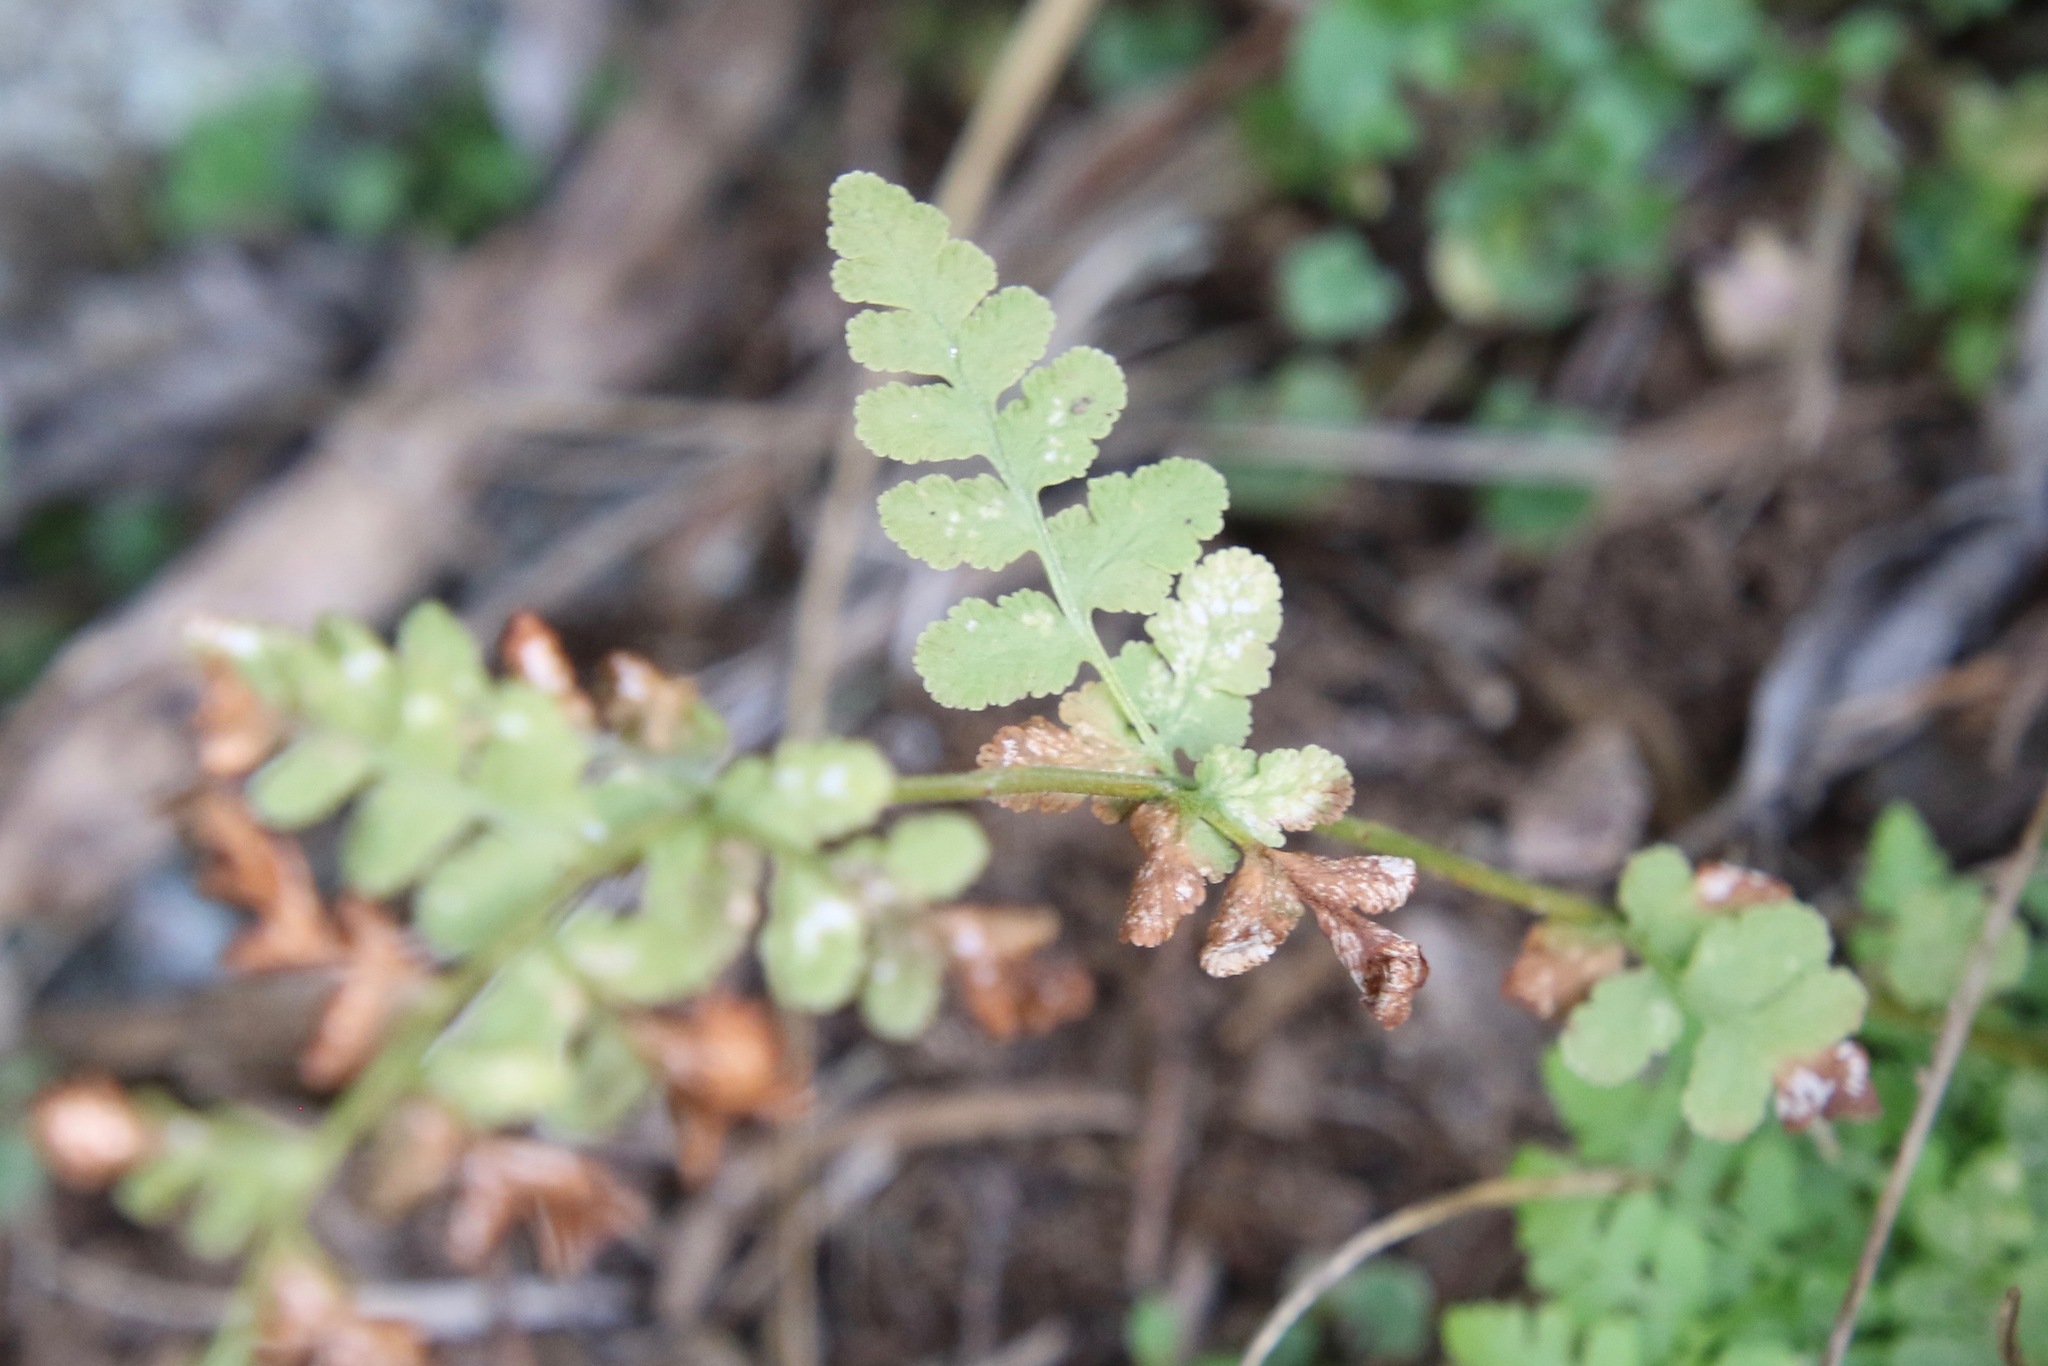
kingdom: Plantae
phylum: Tracheophyta
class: Polypodiopsida
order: Polypodiales
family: Woodsiaceae
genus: Physematium
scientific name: Physematium obtusum
